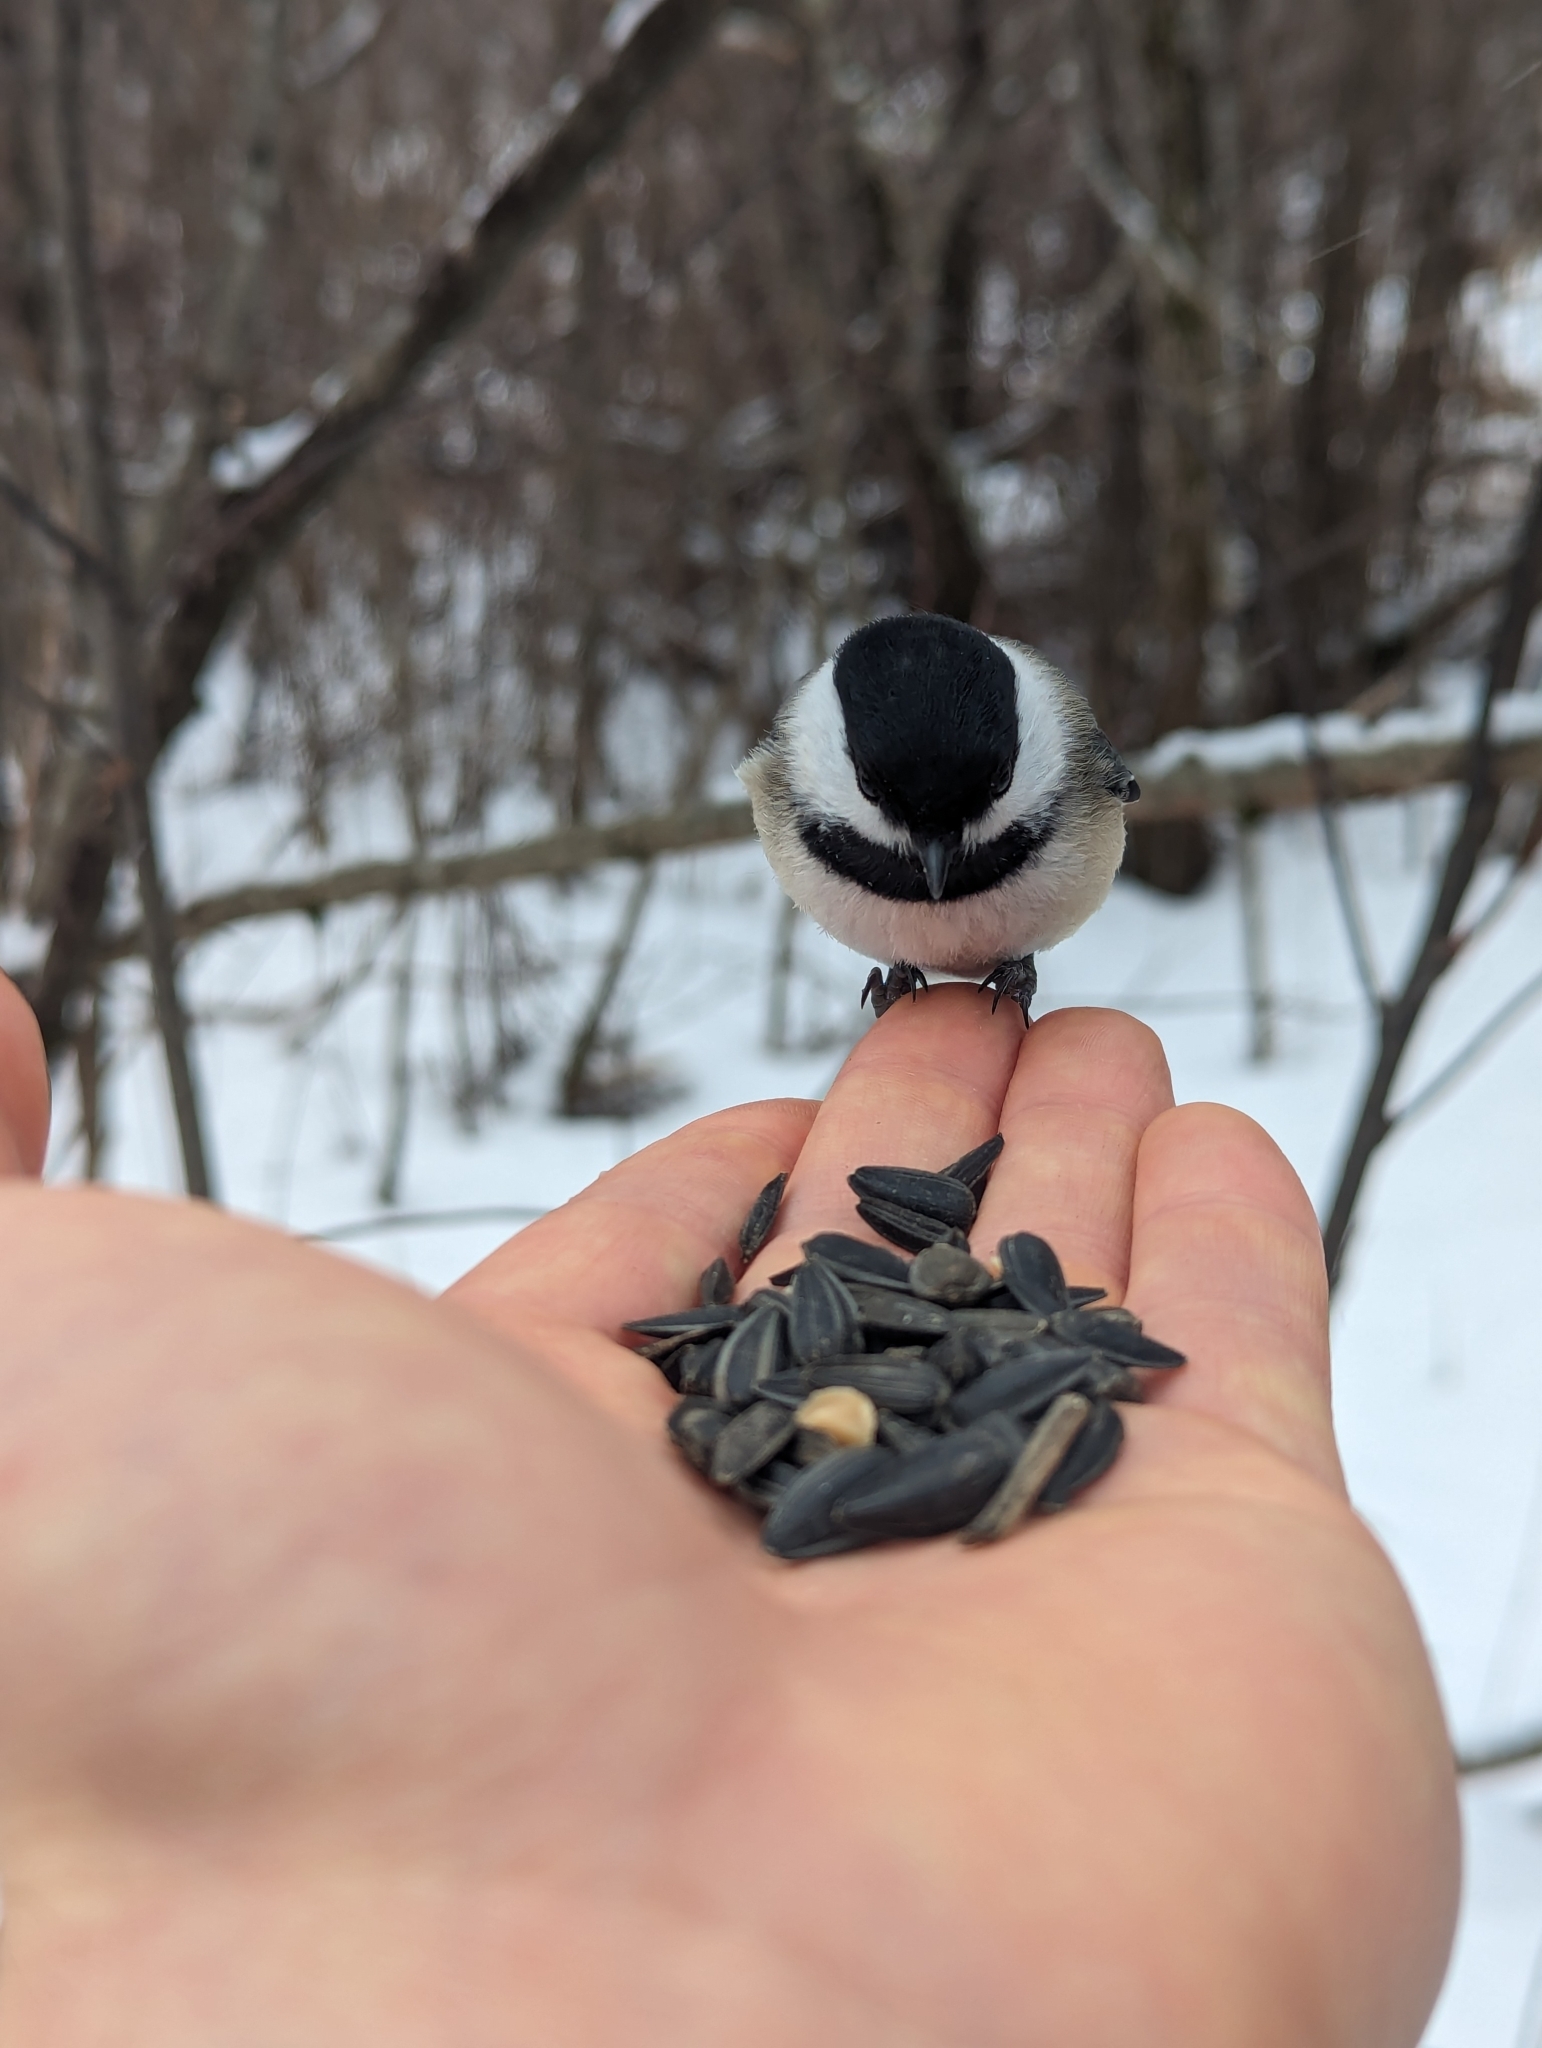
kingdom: Animalia
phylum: Chordata
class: Aves
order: Passeriformes
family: Paridae
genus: Poecile
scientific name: Poecile atricapillus
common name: Black-capped chickadee
